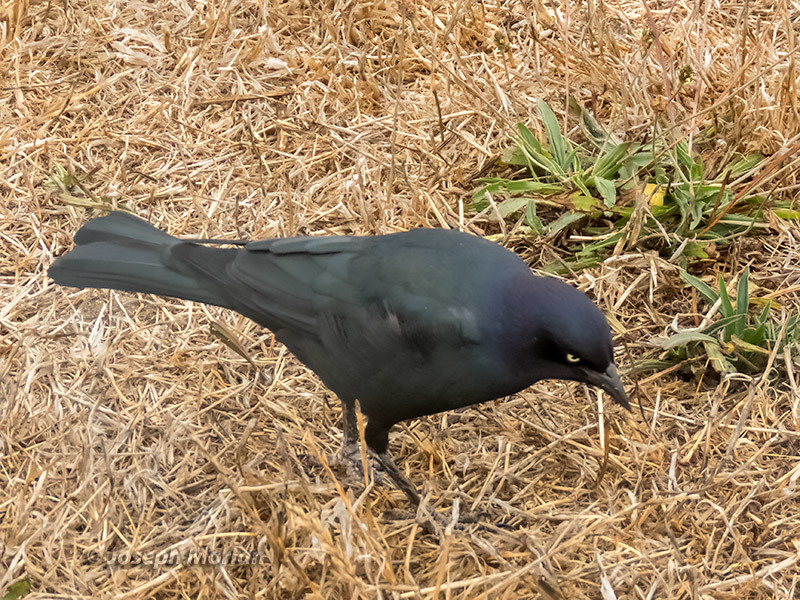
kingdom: Animalia
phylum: Chordata
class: Aves
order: Passeriformes
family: Icteridae
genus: Euphagus
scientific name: Euphagus cyanocephalus
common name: Brewer's blackbird
